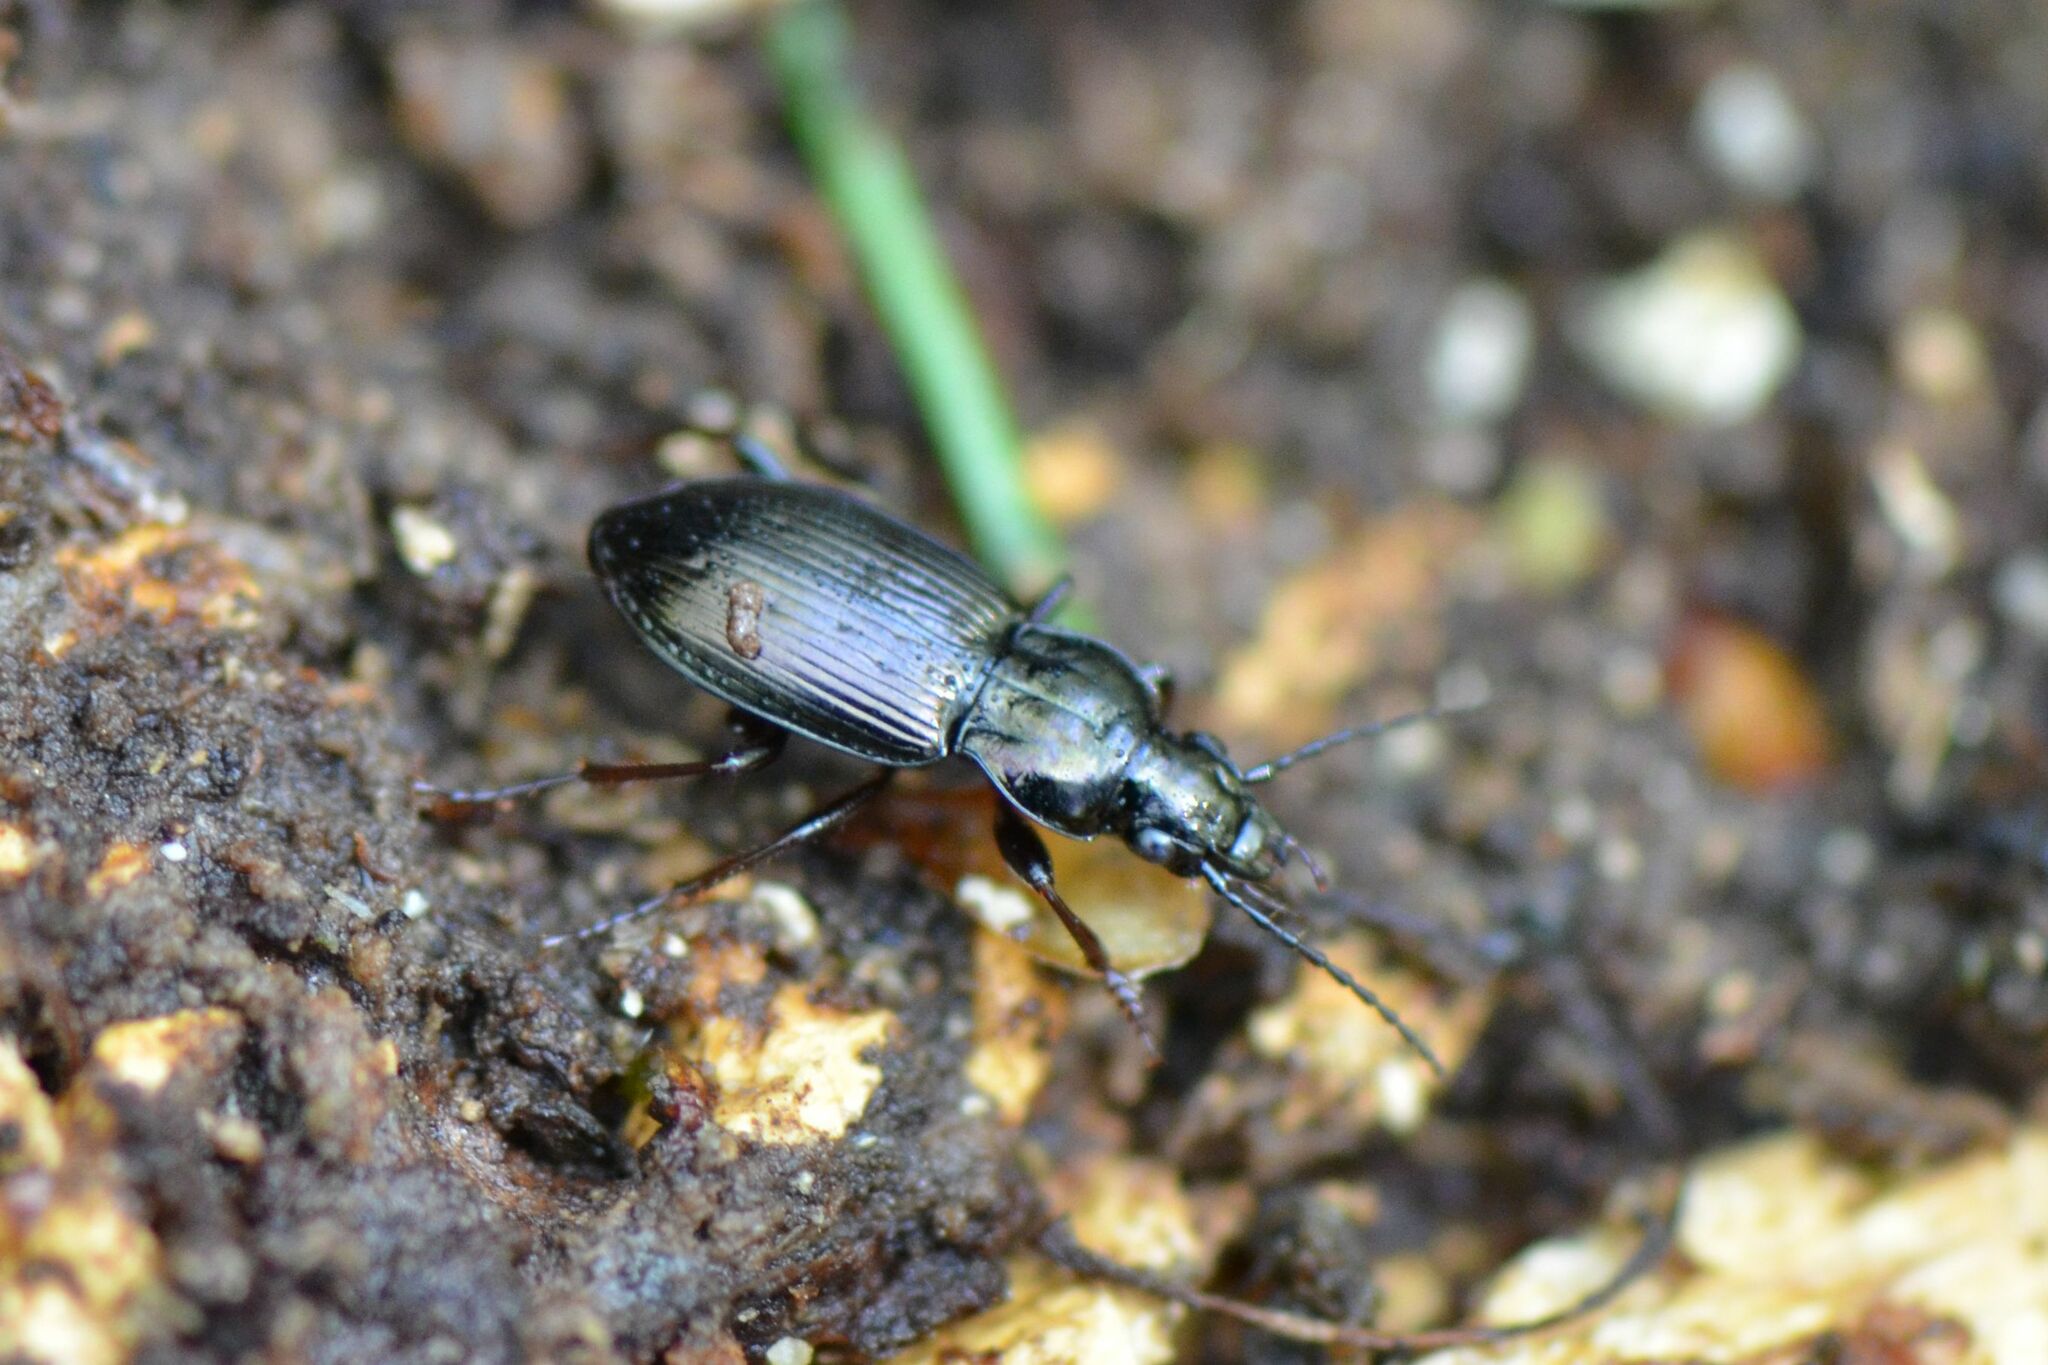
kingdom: Animalia
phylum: Arthropoda
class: Insecta
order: Coleoptera
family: Carabidae
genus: Pterostichus
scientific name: Pterostichus oblongopunctatus
